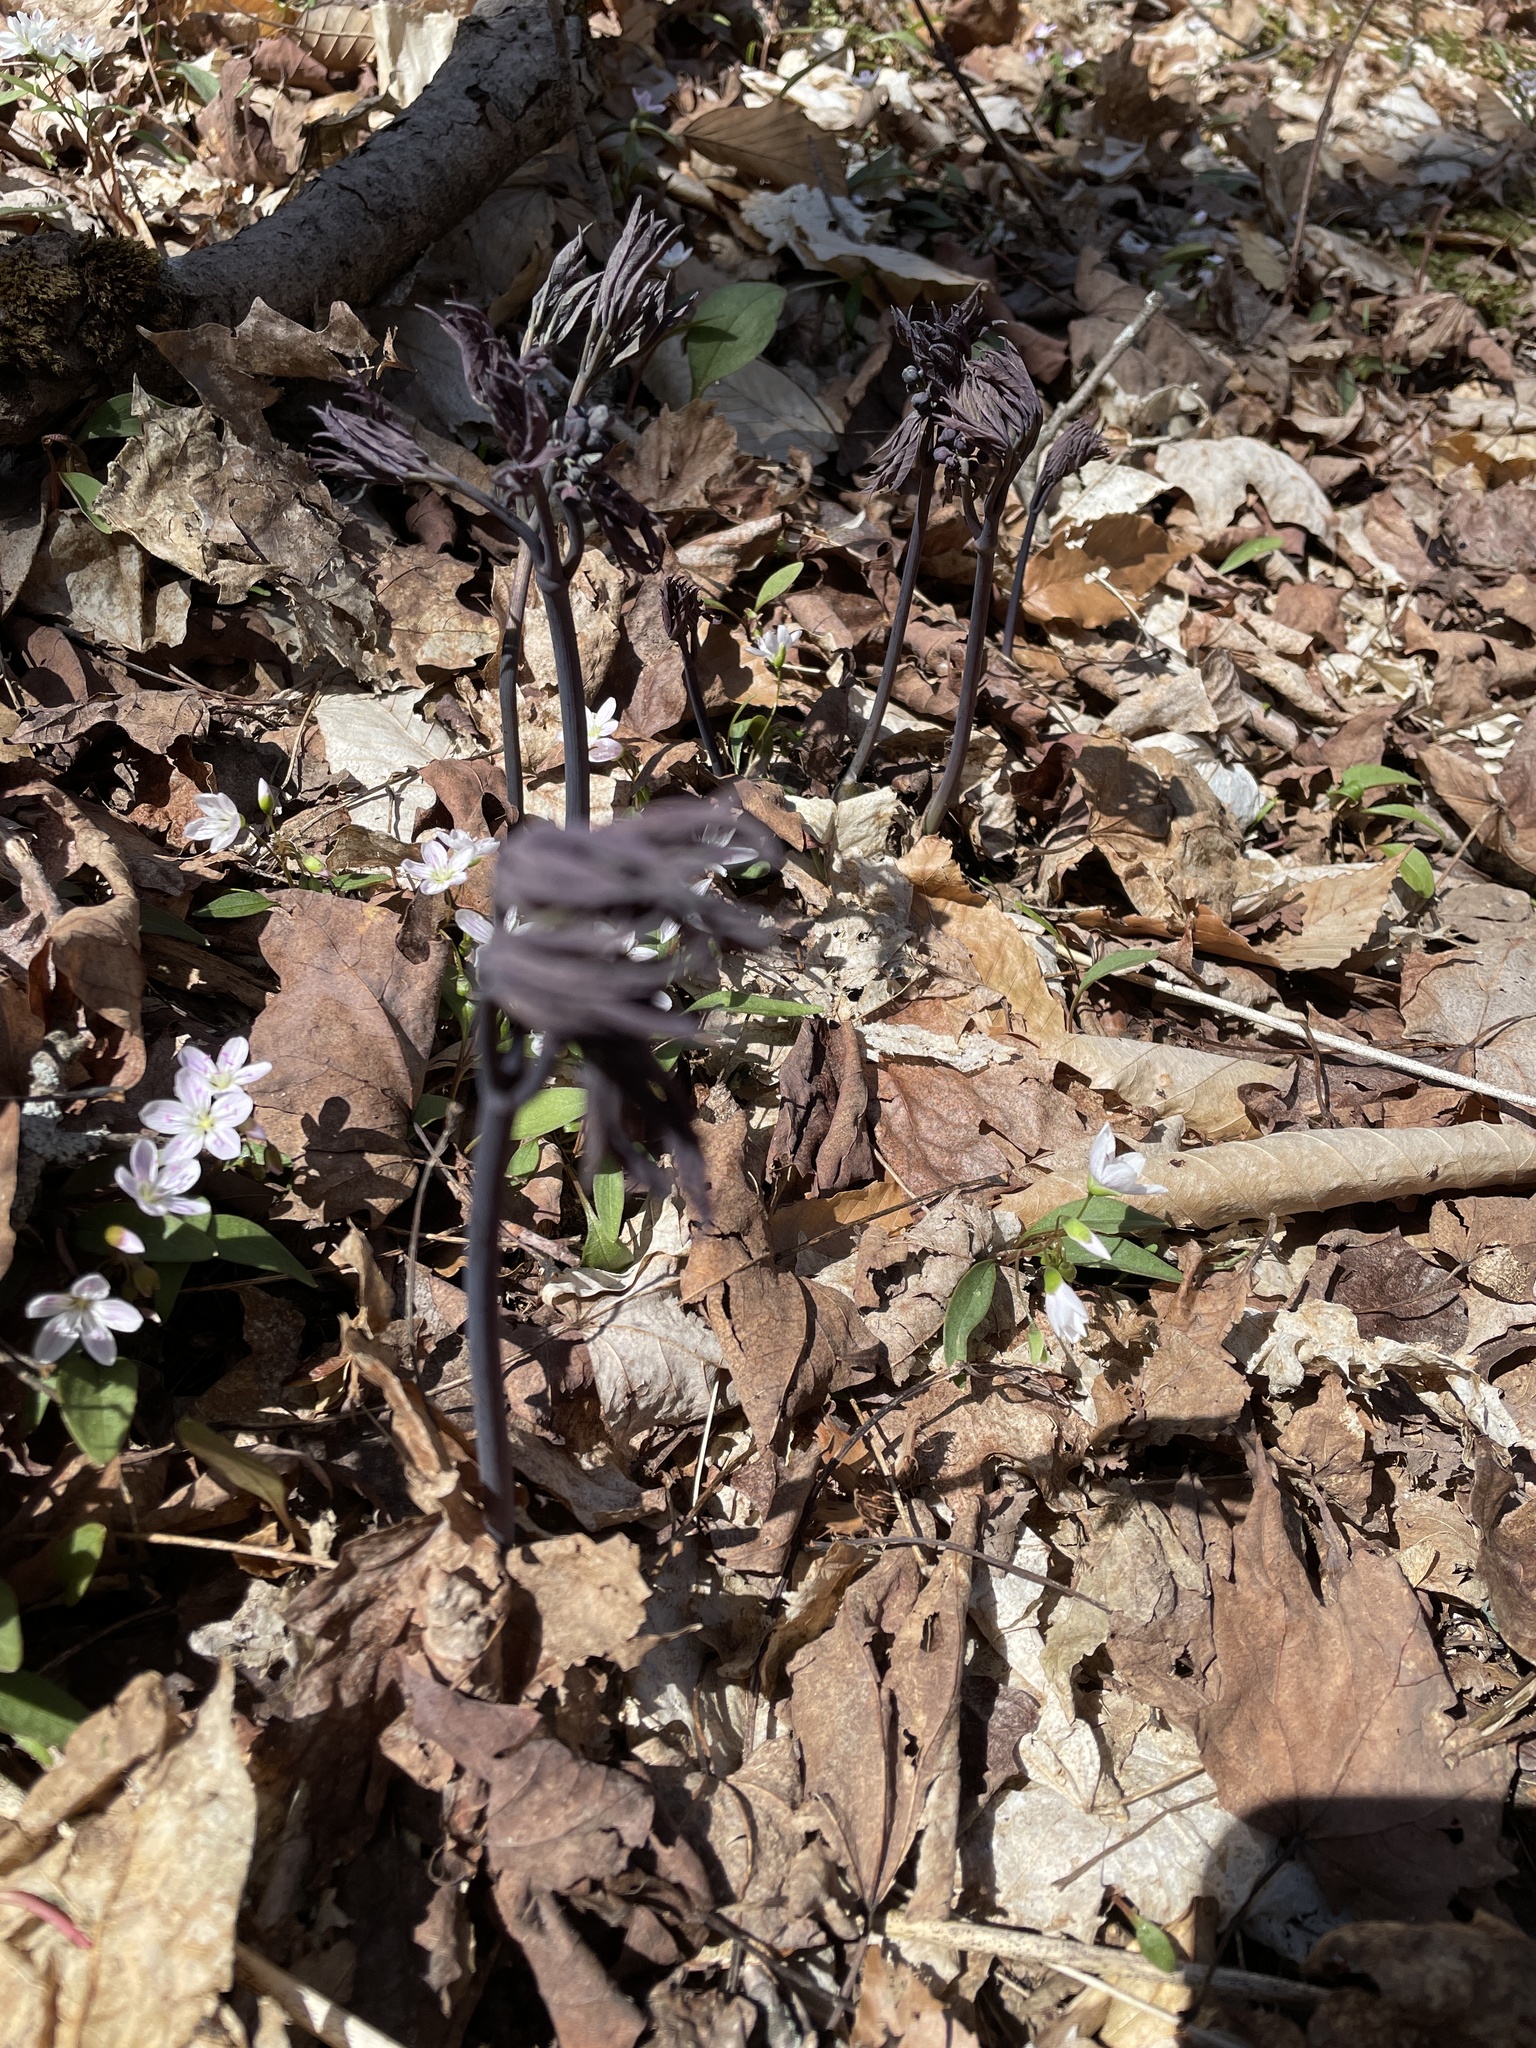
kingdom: Plantae
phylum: Tracheophyta
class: Magnoliopsida
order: Ranunculales
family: Berberidaceae
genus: Caulophyllum
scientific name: Caulophyllum giganteum
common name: Blue cohosh
